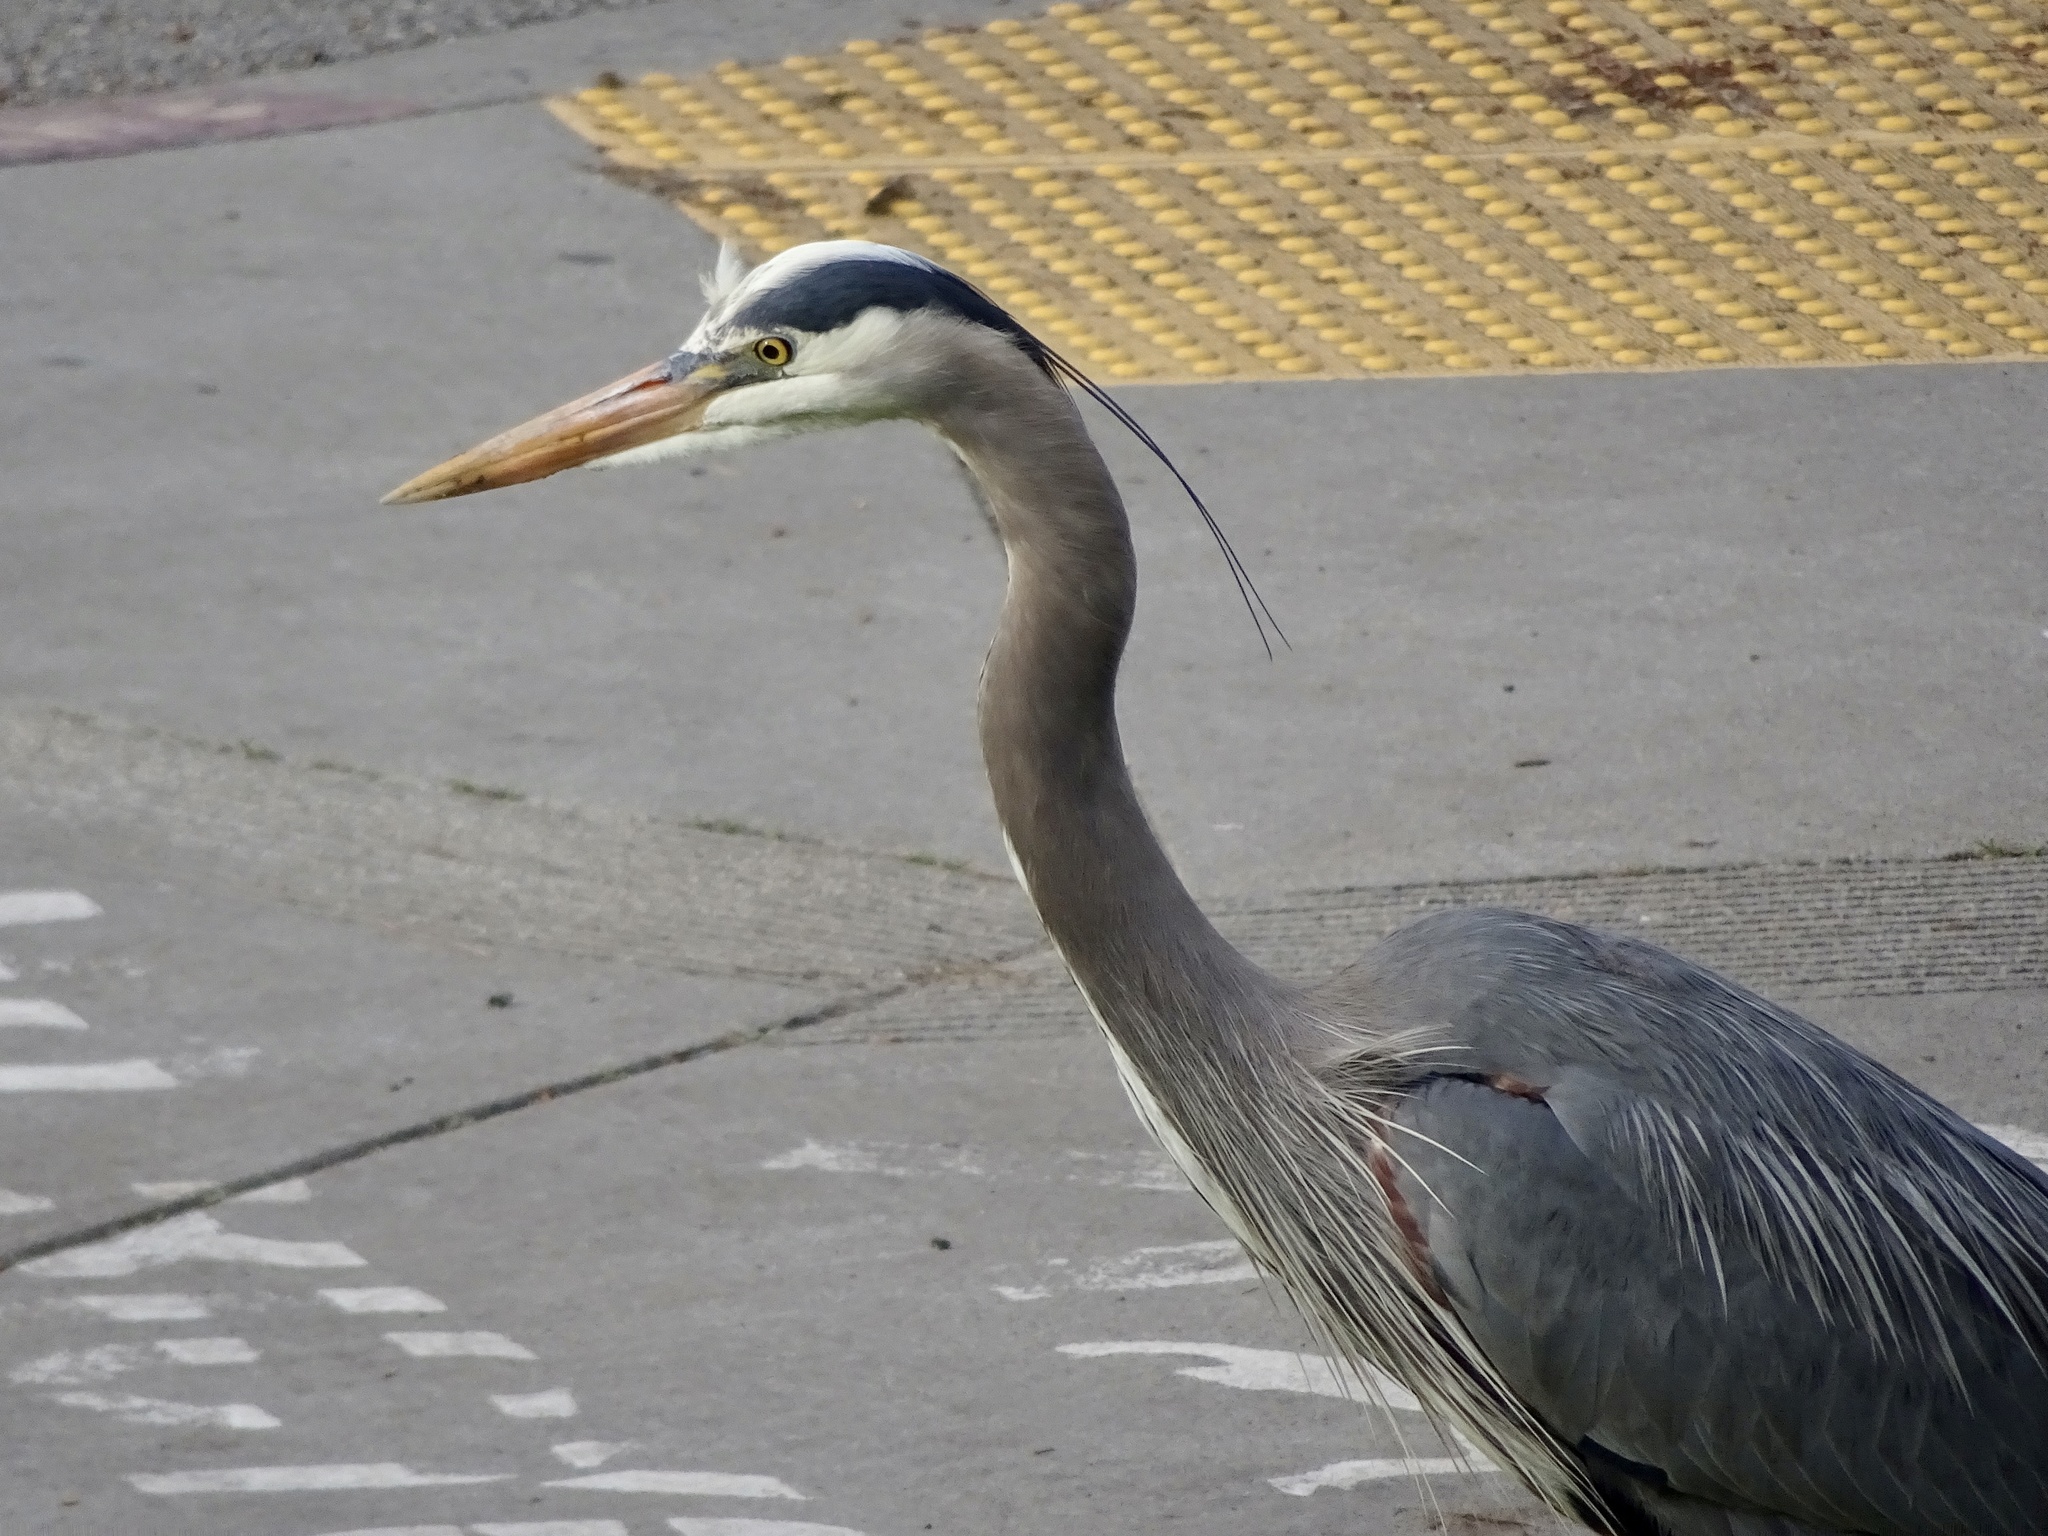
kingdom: Animalia
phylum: Chordata
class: Aves
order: Pelecaniformes
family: Ardeidae
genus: Ardea
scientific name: Ardea herodias
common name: Great blue heron
